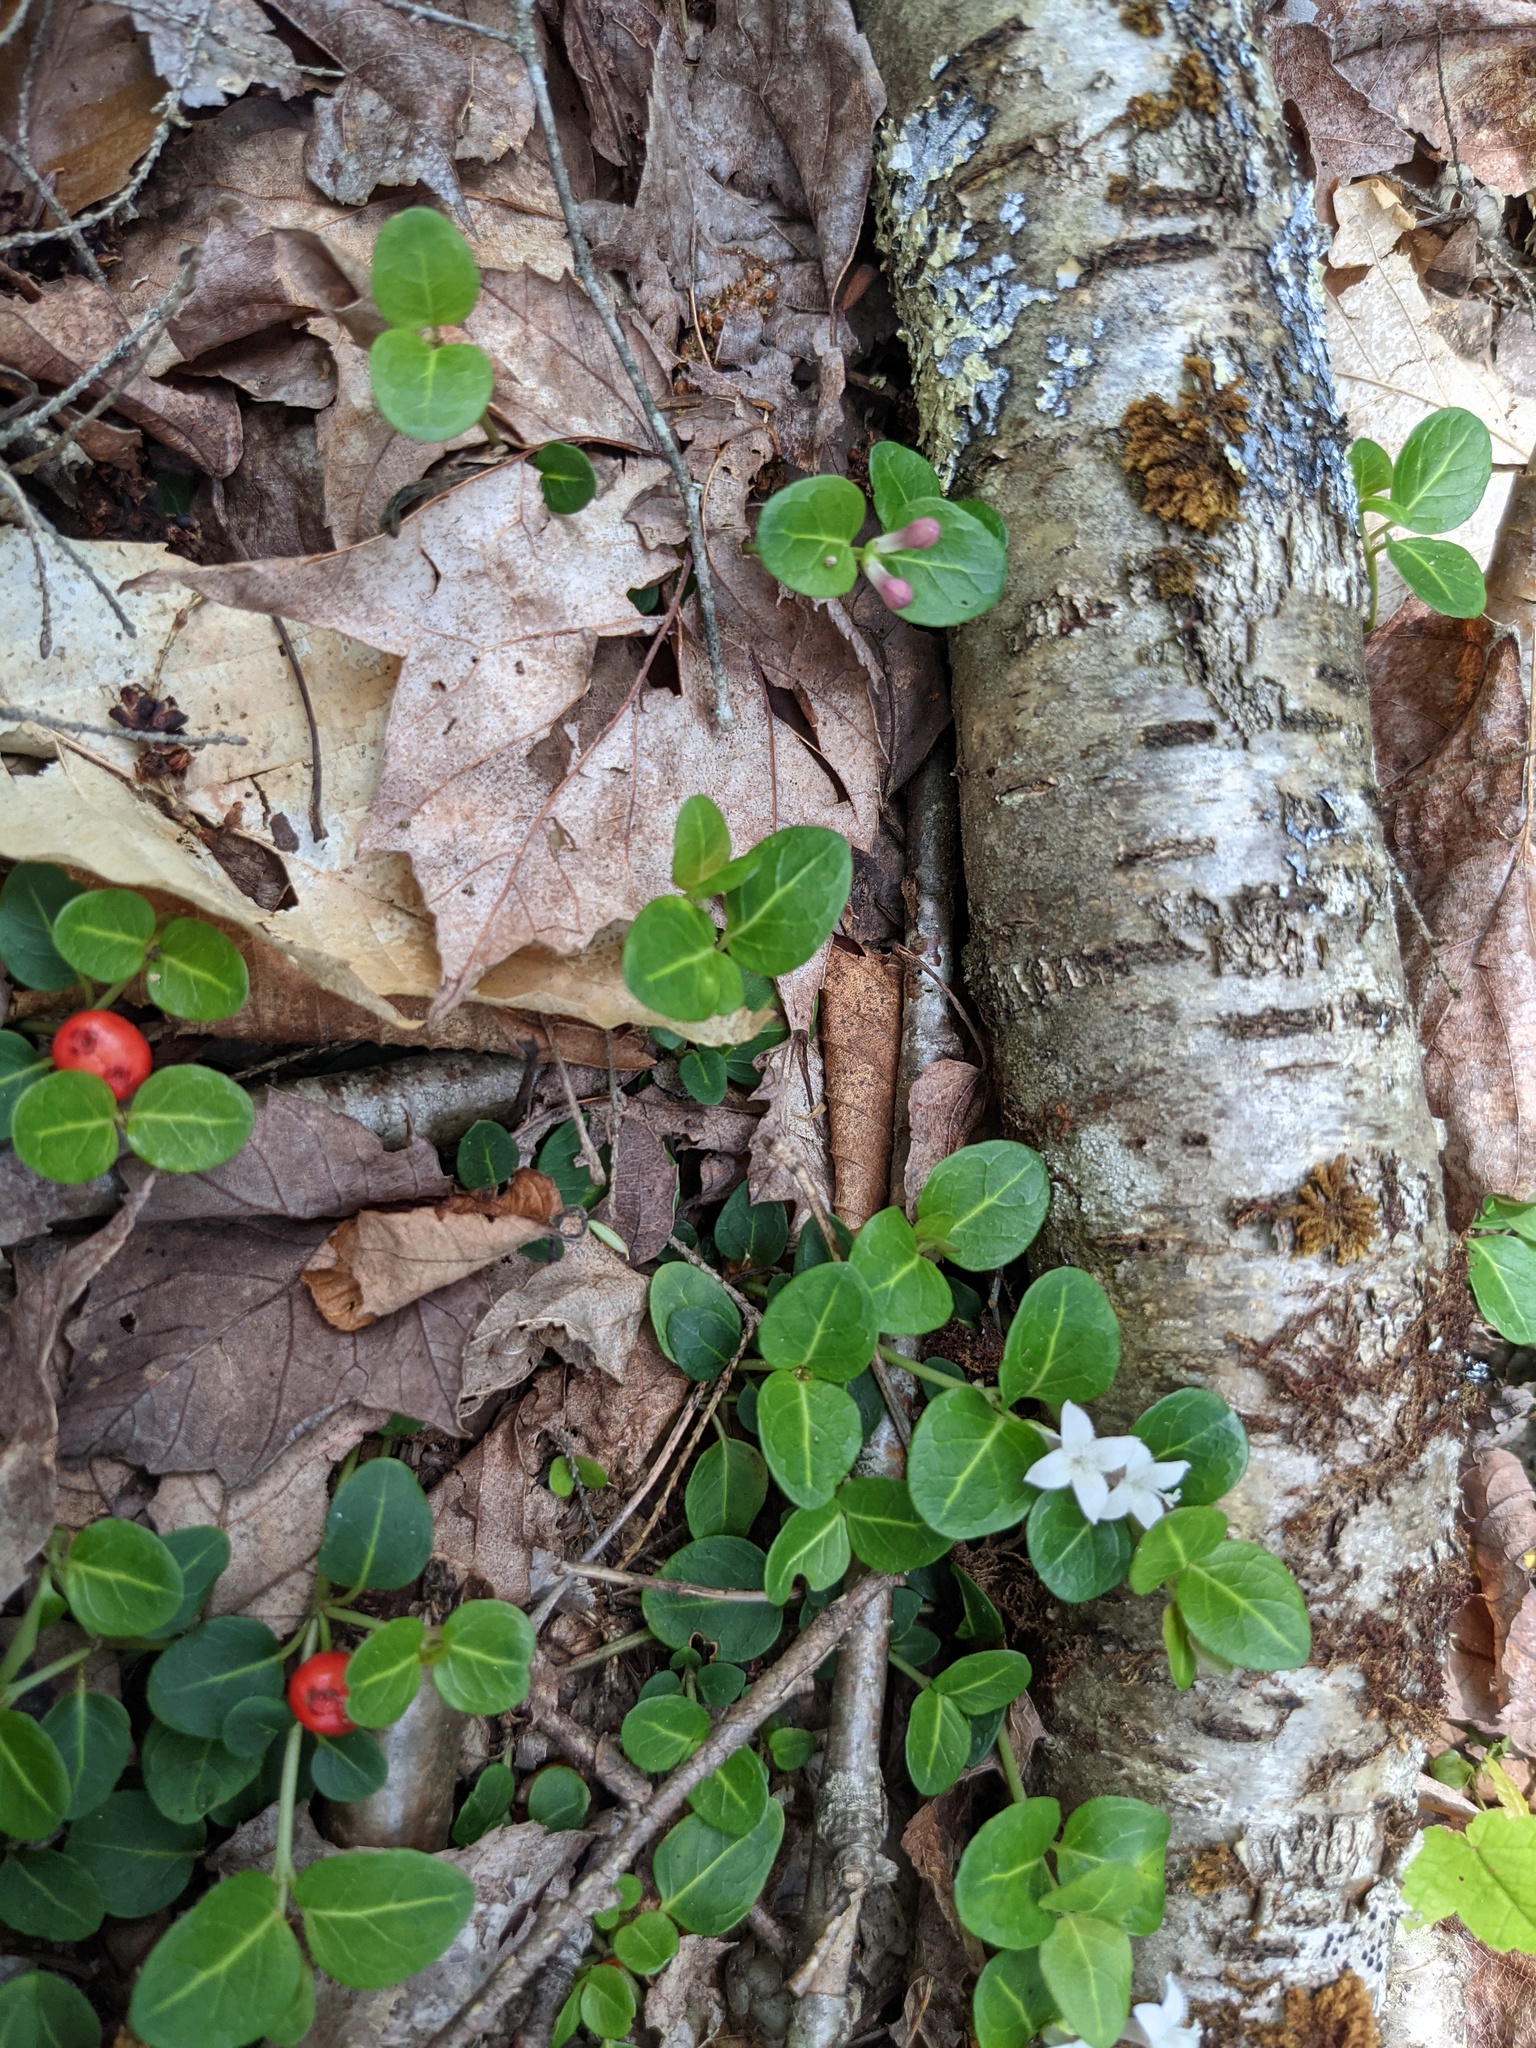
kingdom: Plantae
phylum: Tracheophyta
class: Magnoliopsida
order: Gentianales
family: Rubiaceae
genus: Mitchella
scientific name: Mitchella repens
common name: Partridge-berry
